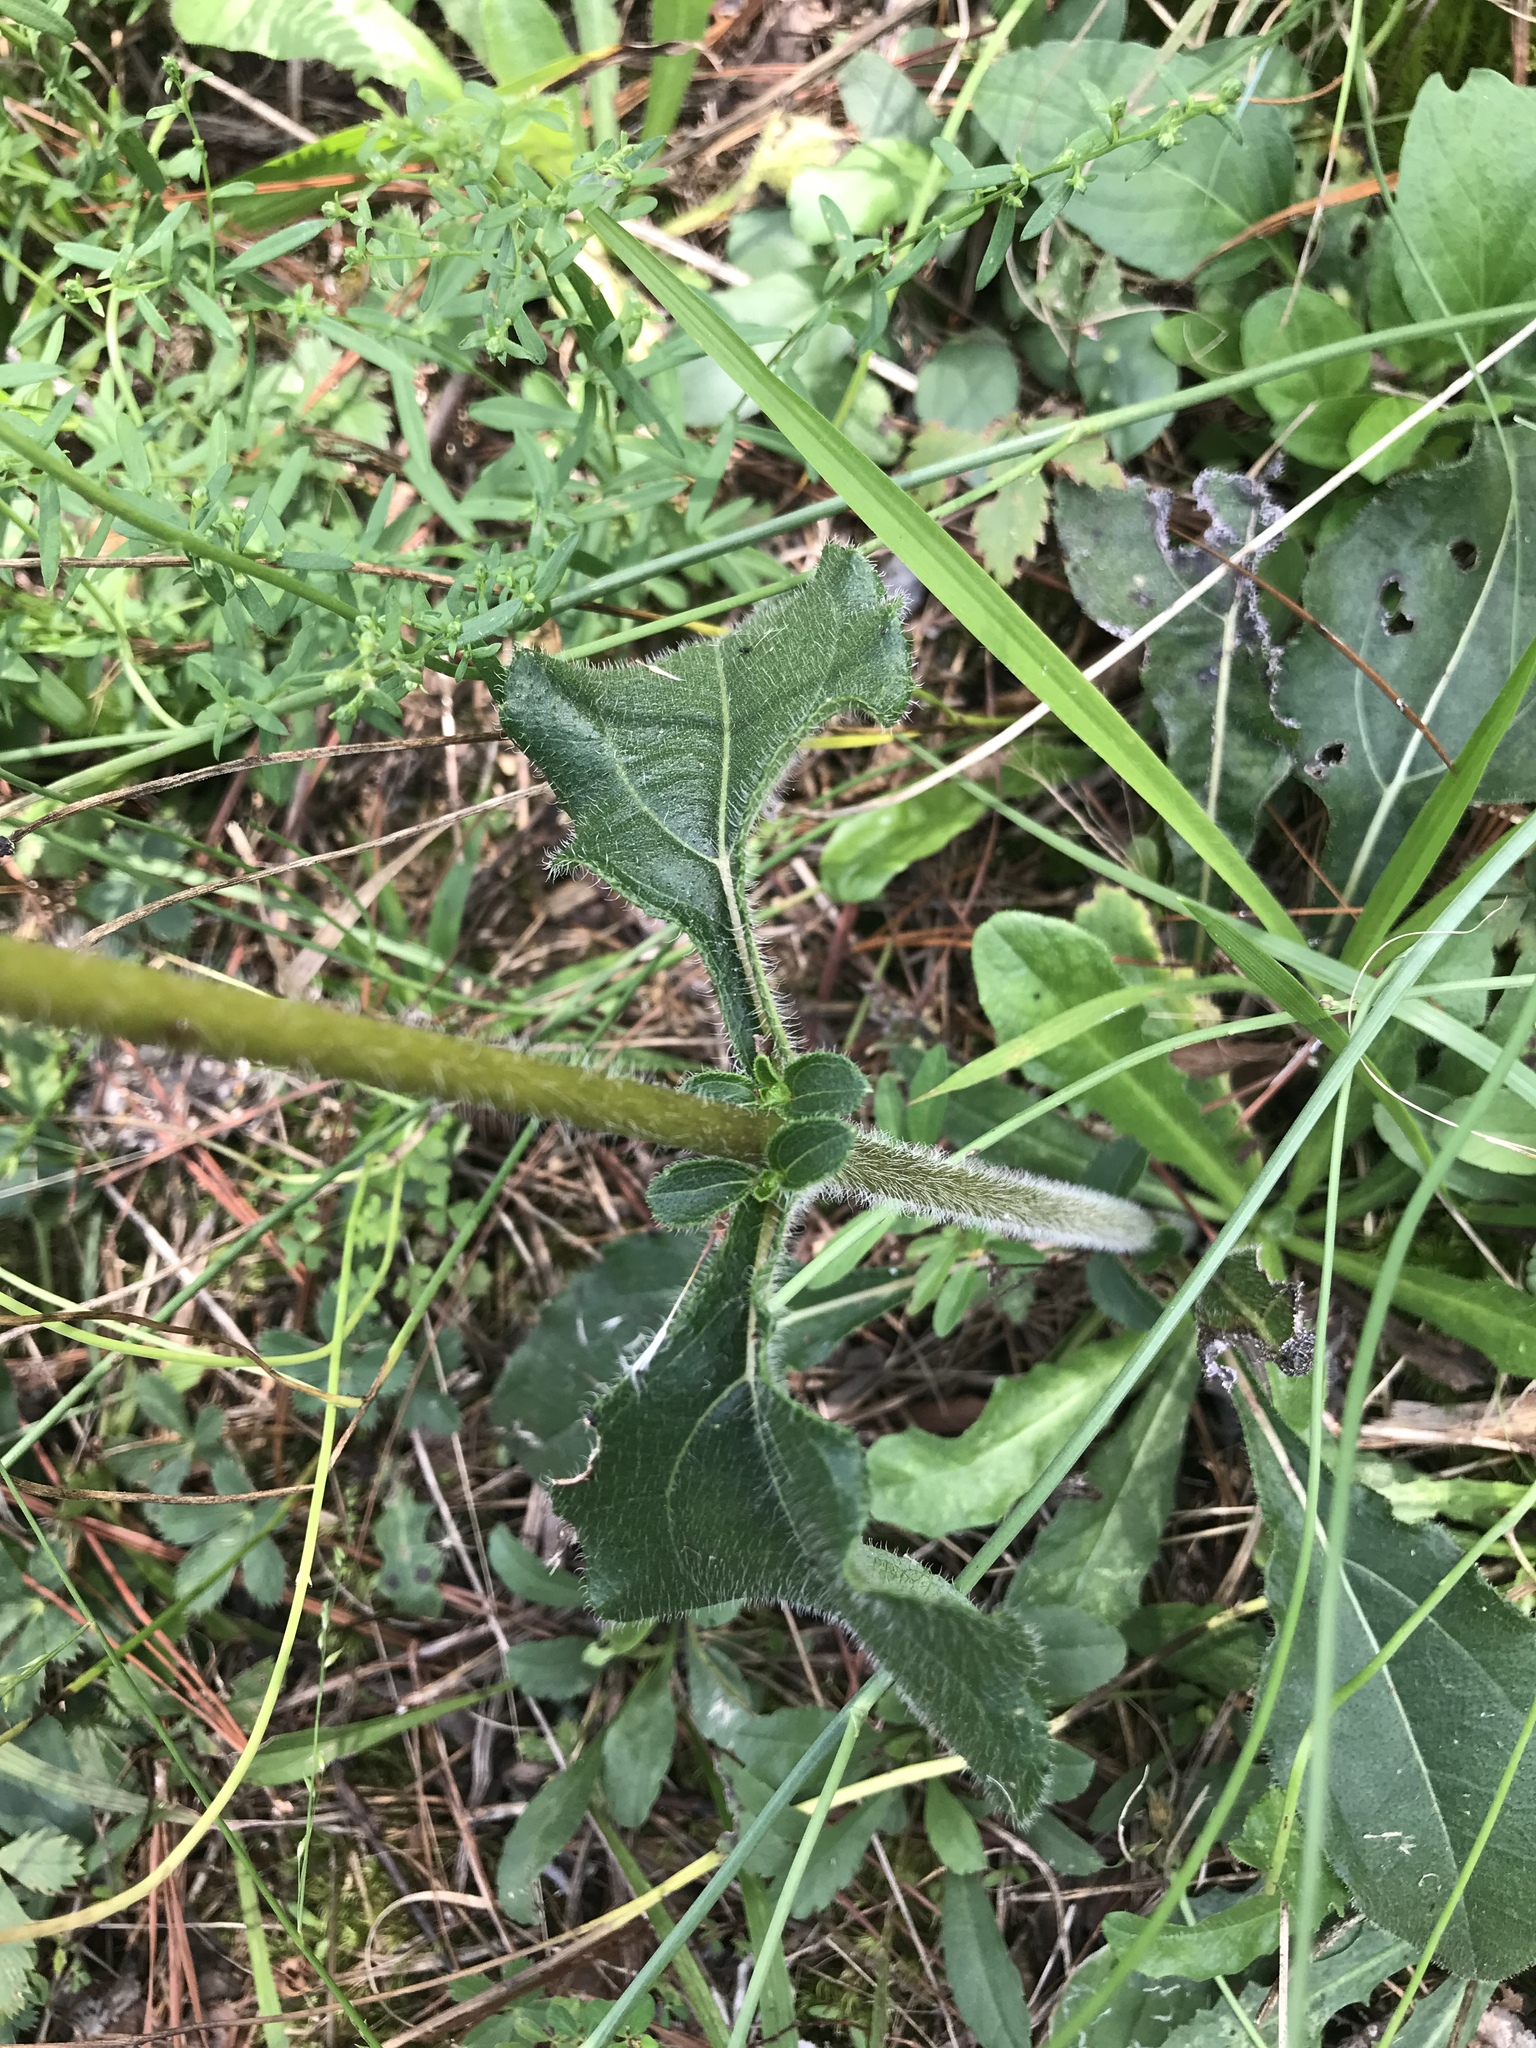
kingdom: Plantae
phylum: Tracheophyta
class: Magnoliopsida
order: Asterales
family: Asteraceae
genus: Helianthus
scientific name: Helianthus atrorubens
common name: Dark-eyed sunflower
